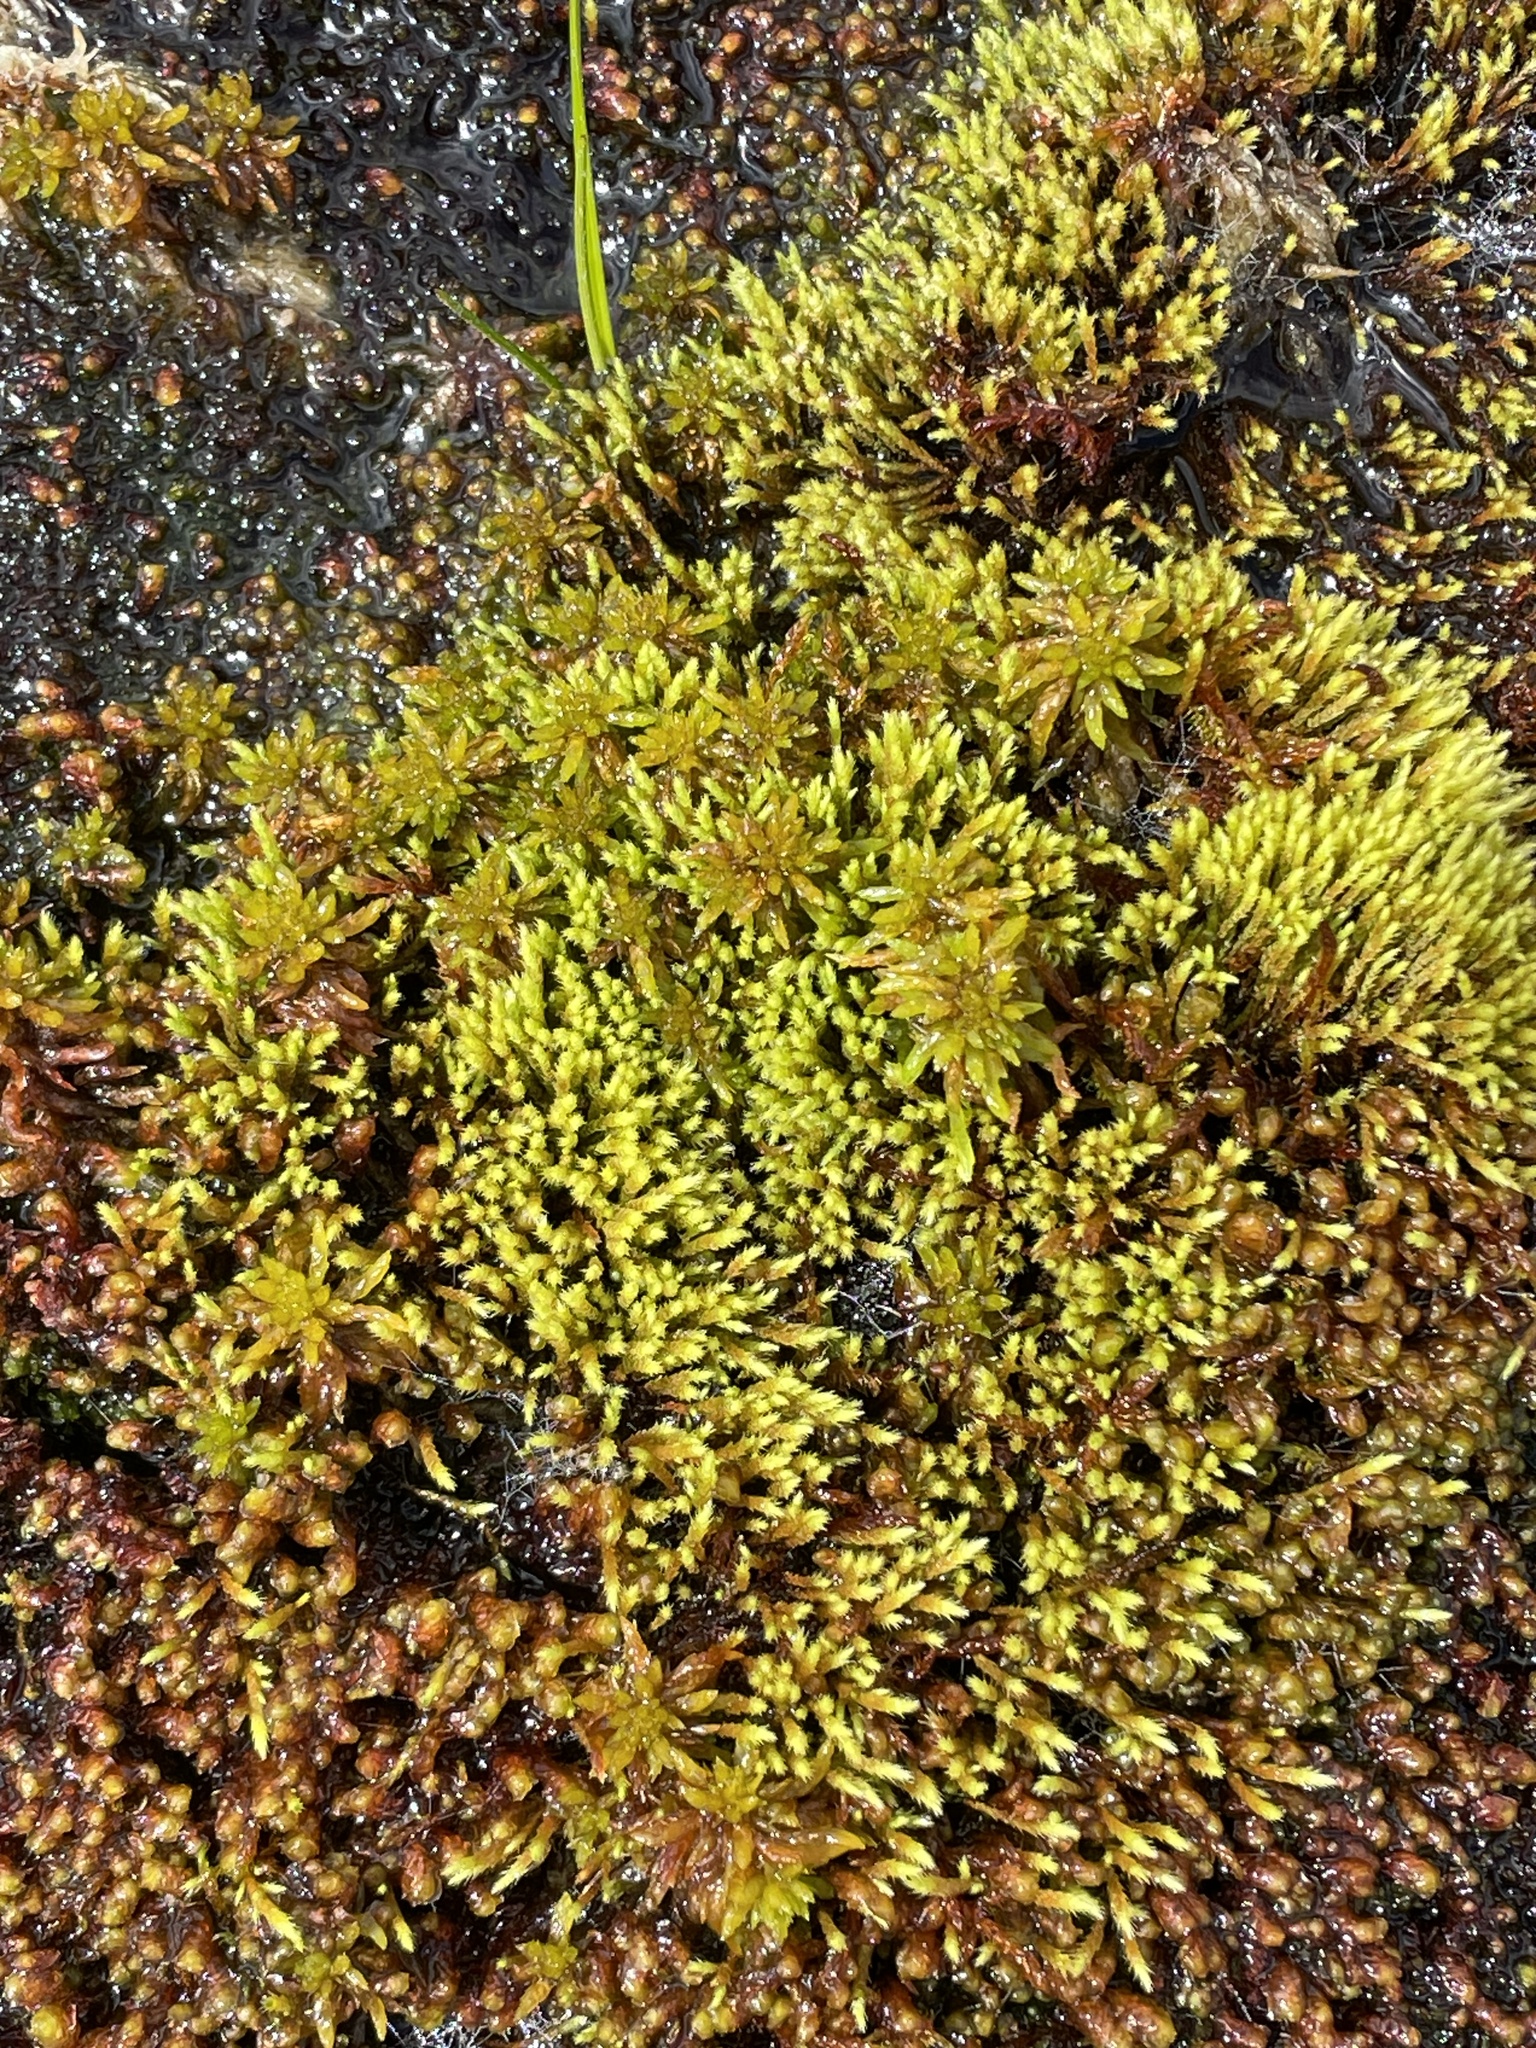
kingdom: Plantae
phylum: Bryophyta
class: Bryopsida
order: Bartramiales
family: Bartramiaceae
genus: Philonotis
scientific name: Philonotis fontana
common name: Fountain apple-moss
